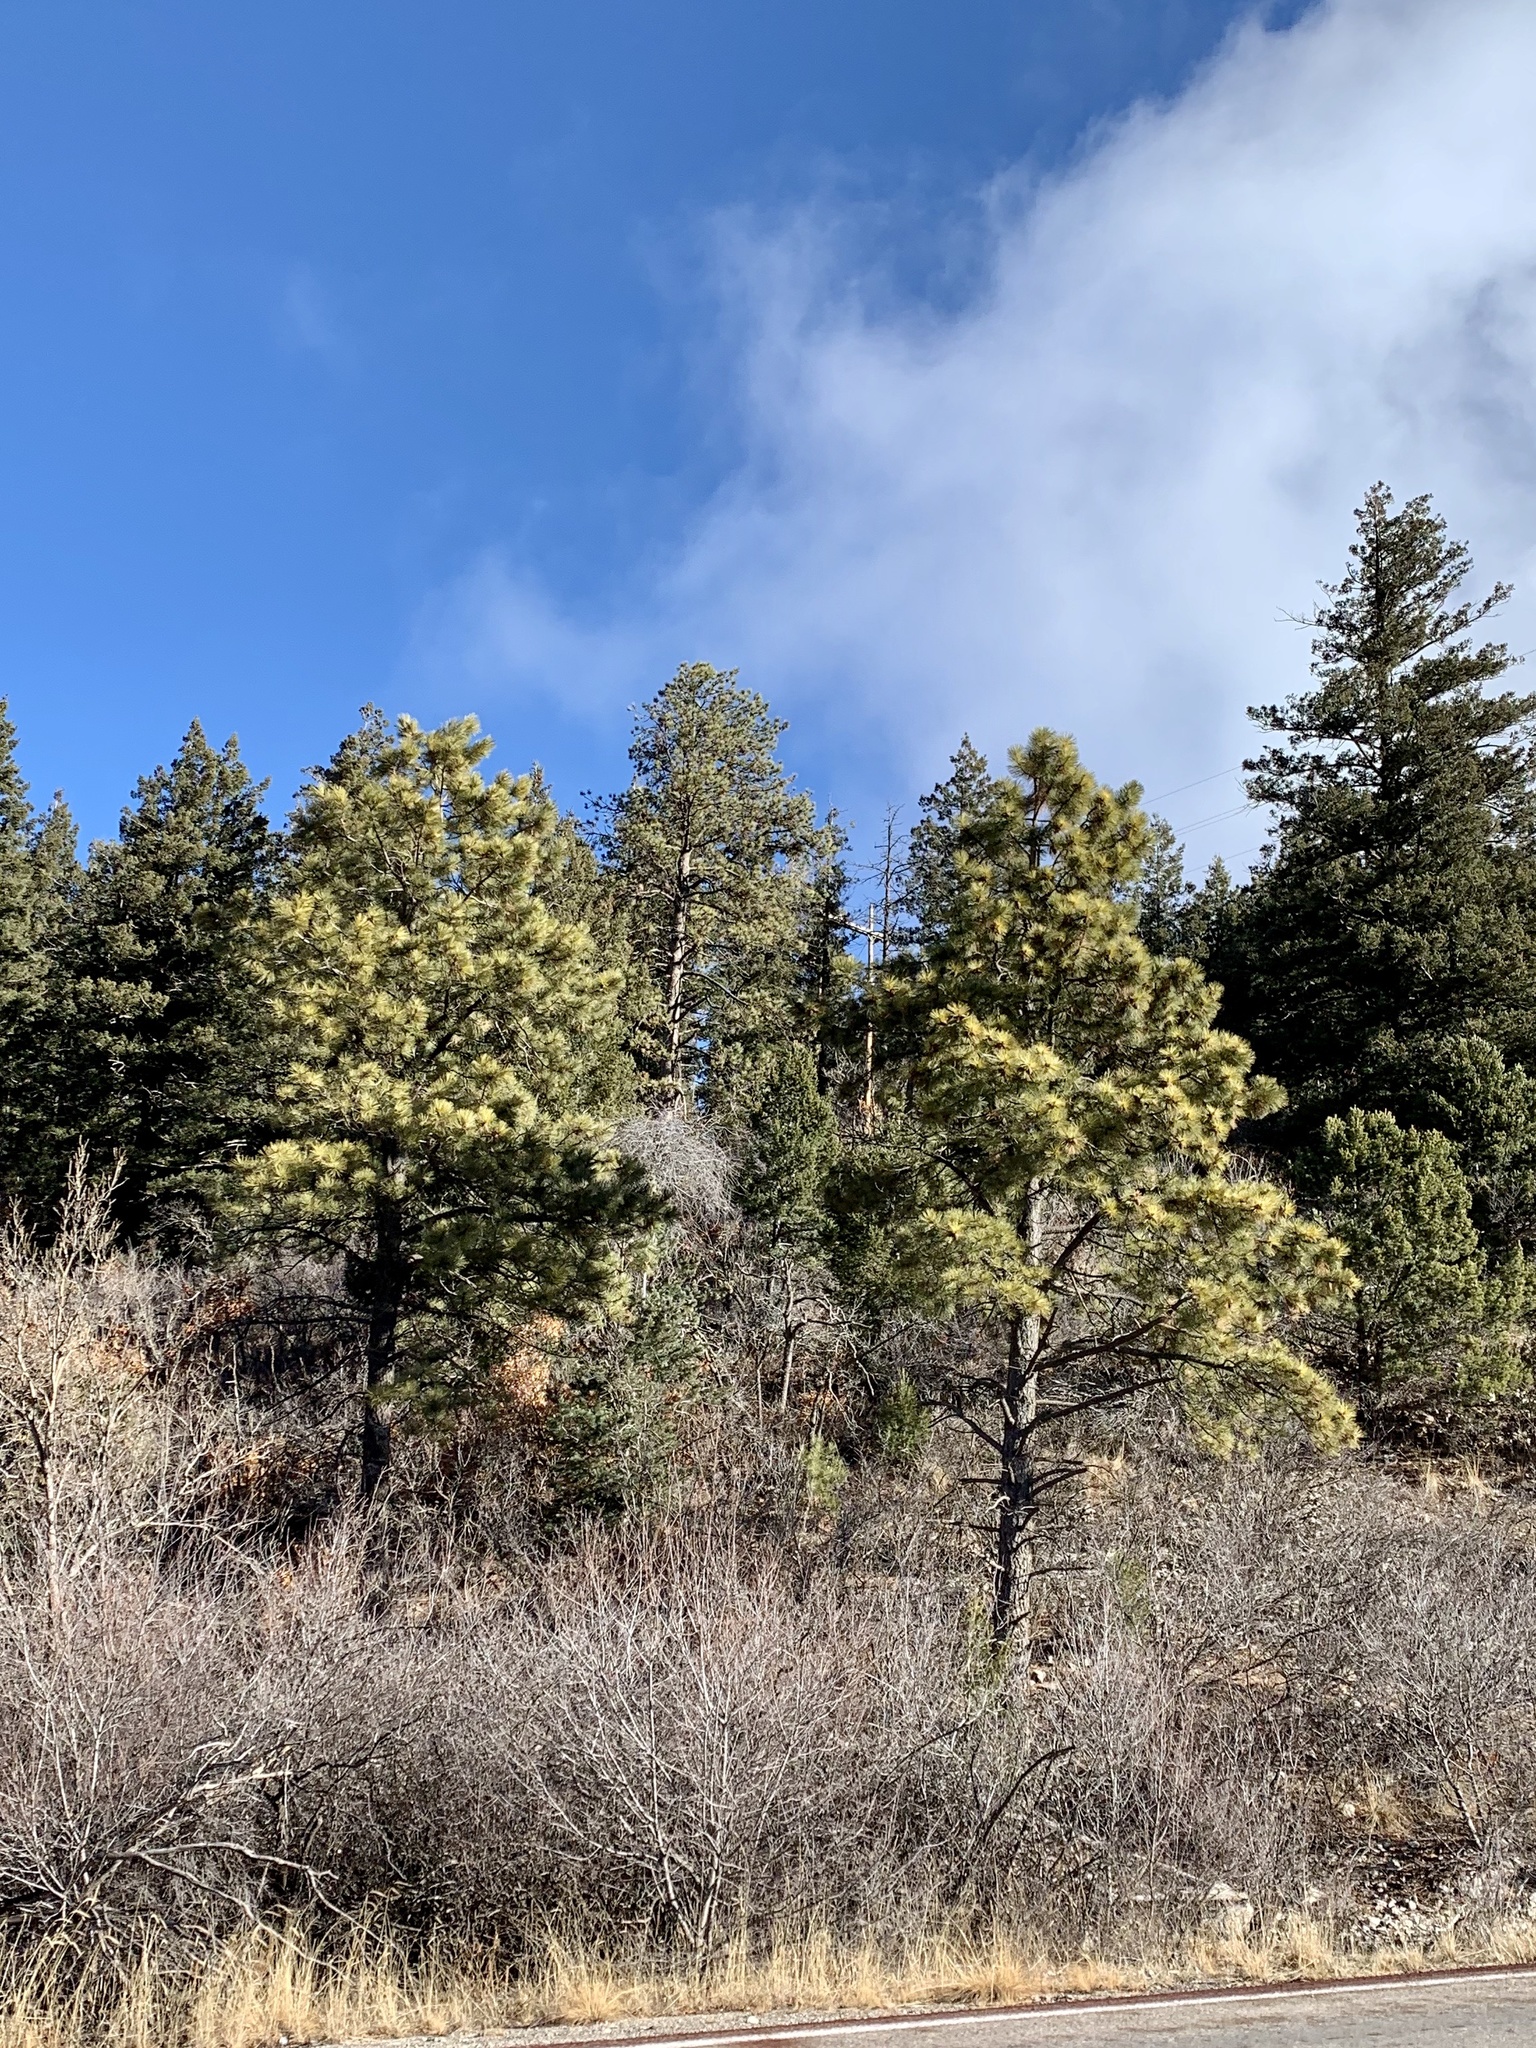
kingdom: Plantae
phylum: Tracheophyta
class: Pinopsida
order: Pinales
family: Pinaceae
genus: Pinus
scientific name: Pinus ponderosa
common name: Western yellow-pine
